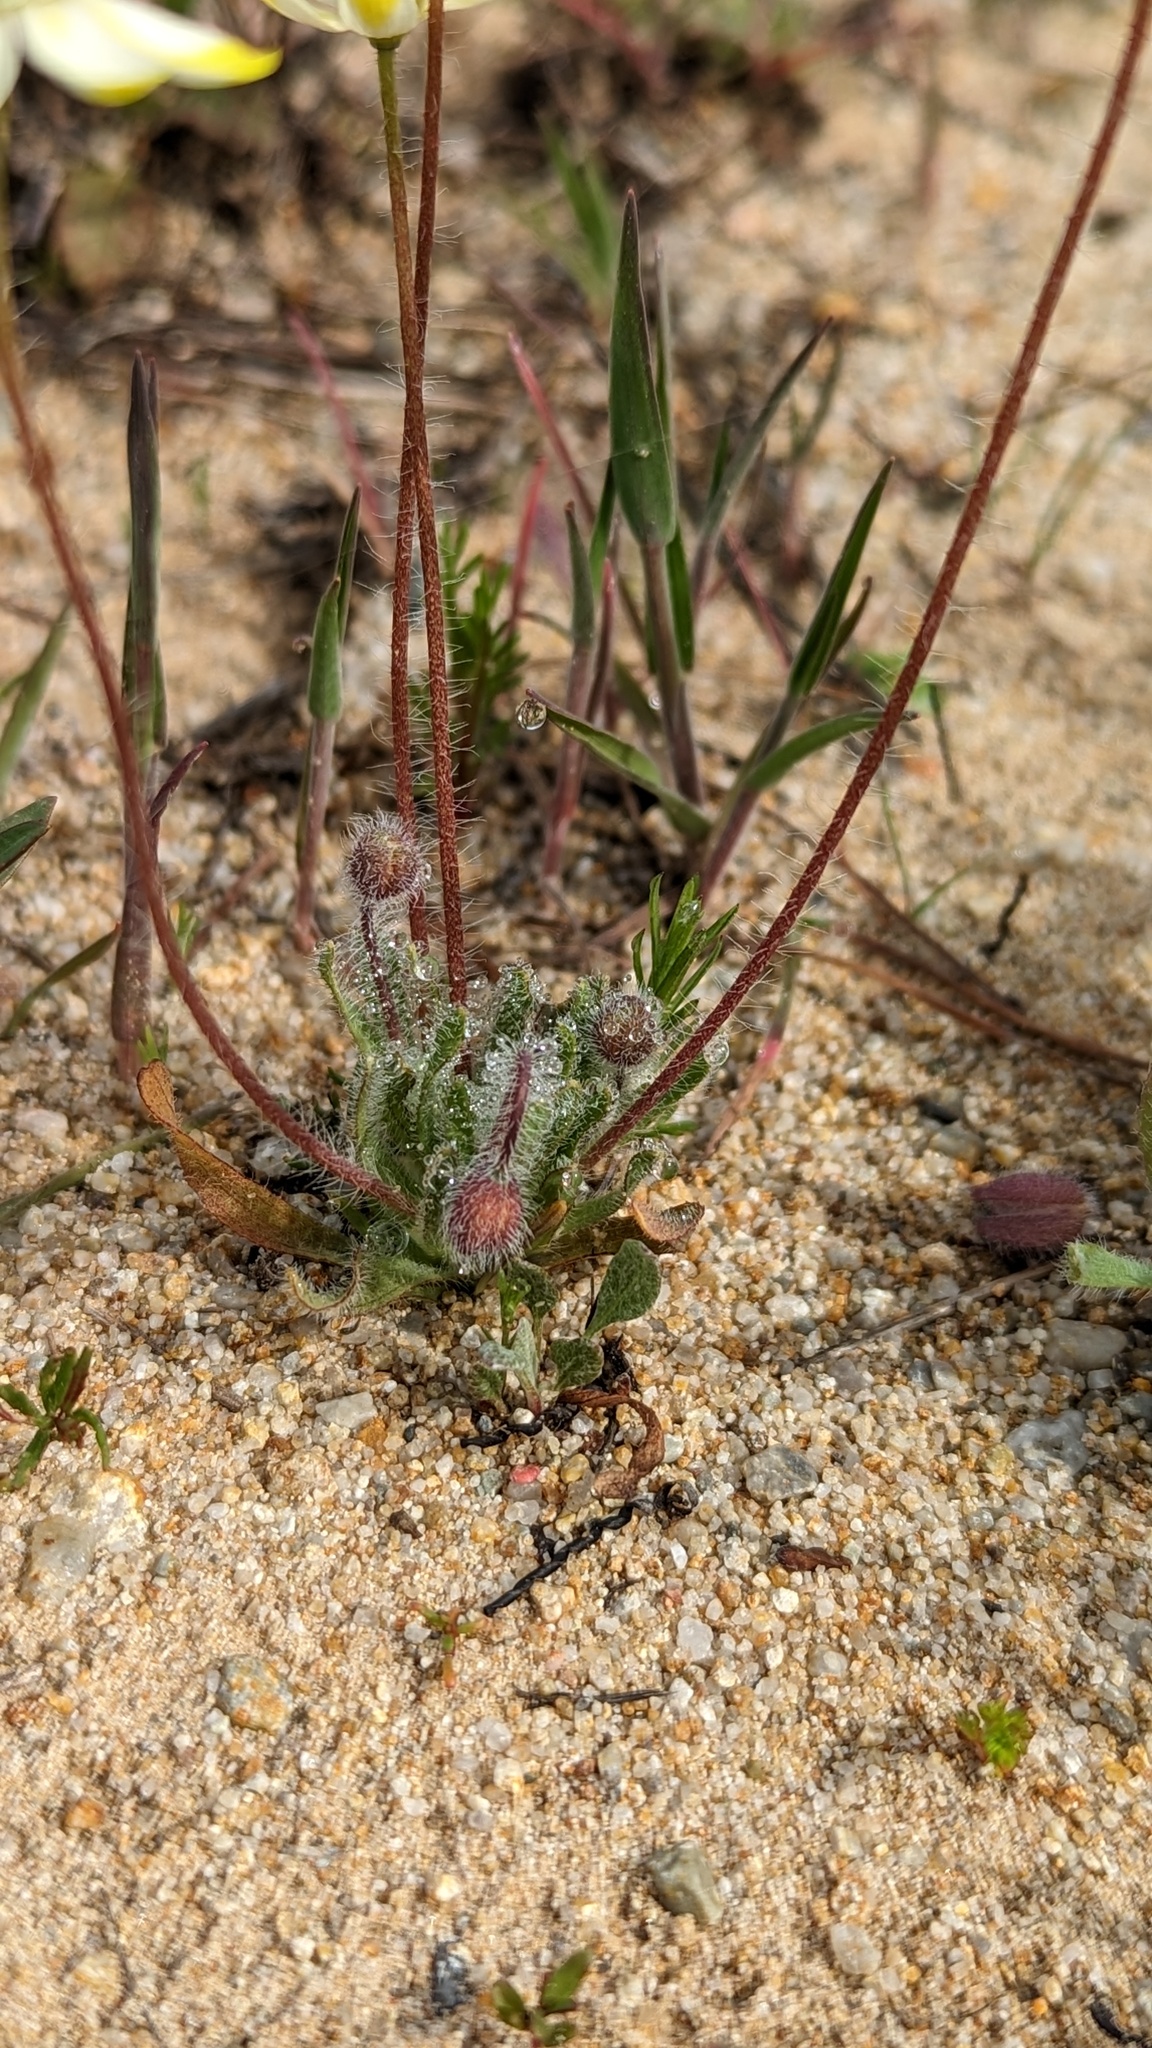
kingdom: Plantae
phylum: Tracheophyta
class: Magnoliopsida
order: Ranunculales
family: Papaveraceae
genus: Platystemon
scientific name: Platystemon californicus
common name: Cream-cups
